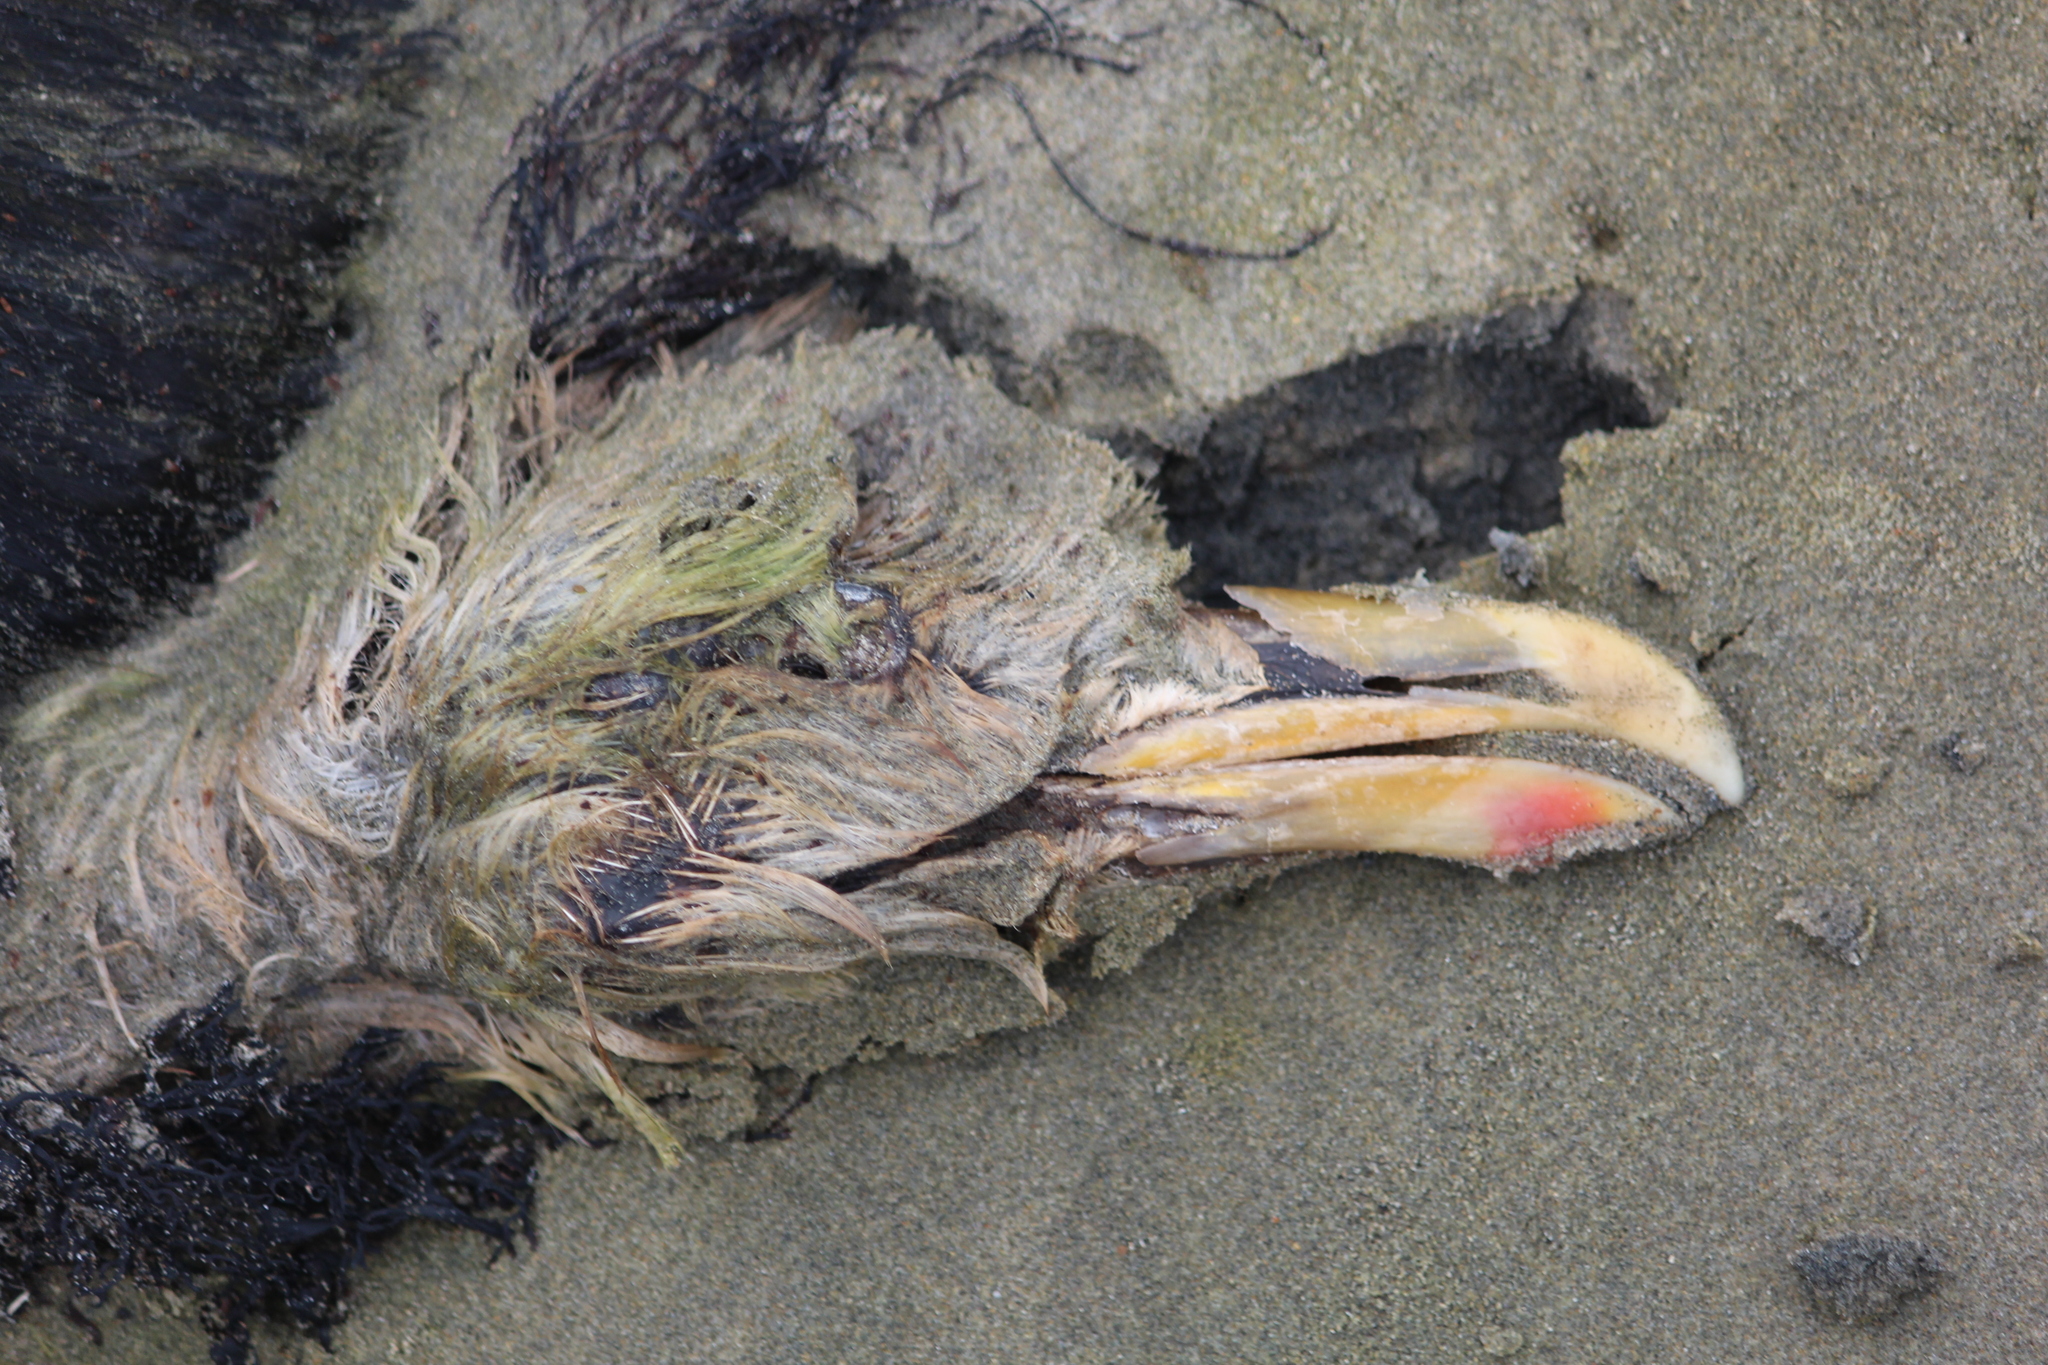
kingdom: Animalia
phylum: Chordata
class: Aves
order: Charadriiformes
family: Laridae
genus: Larus
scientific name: Larus dominicanus
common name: Kelp gull
